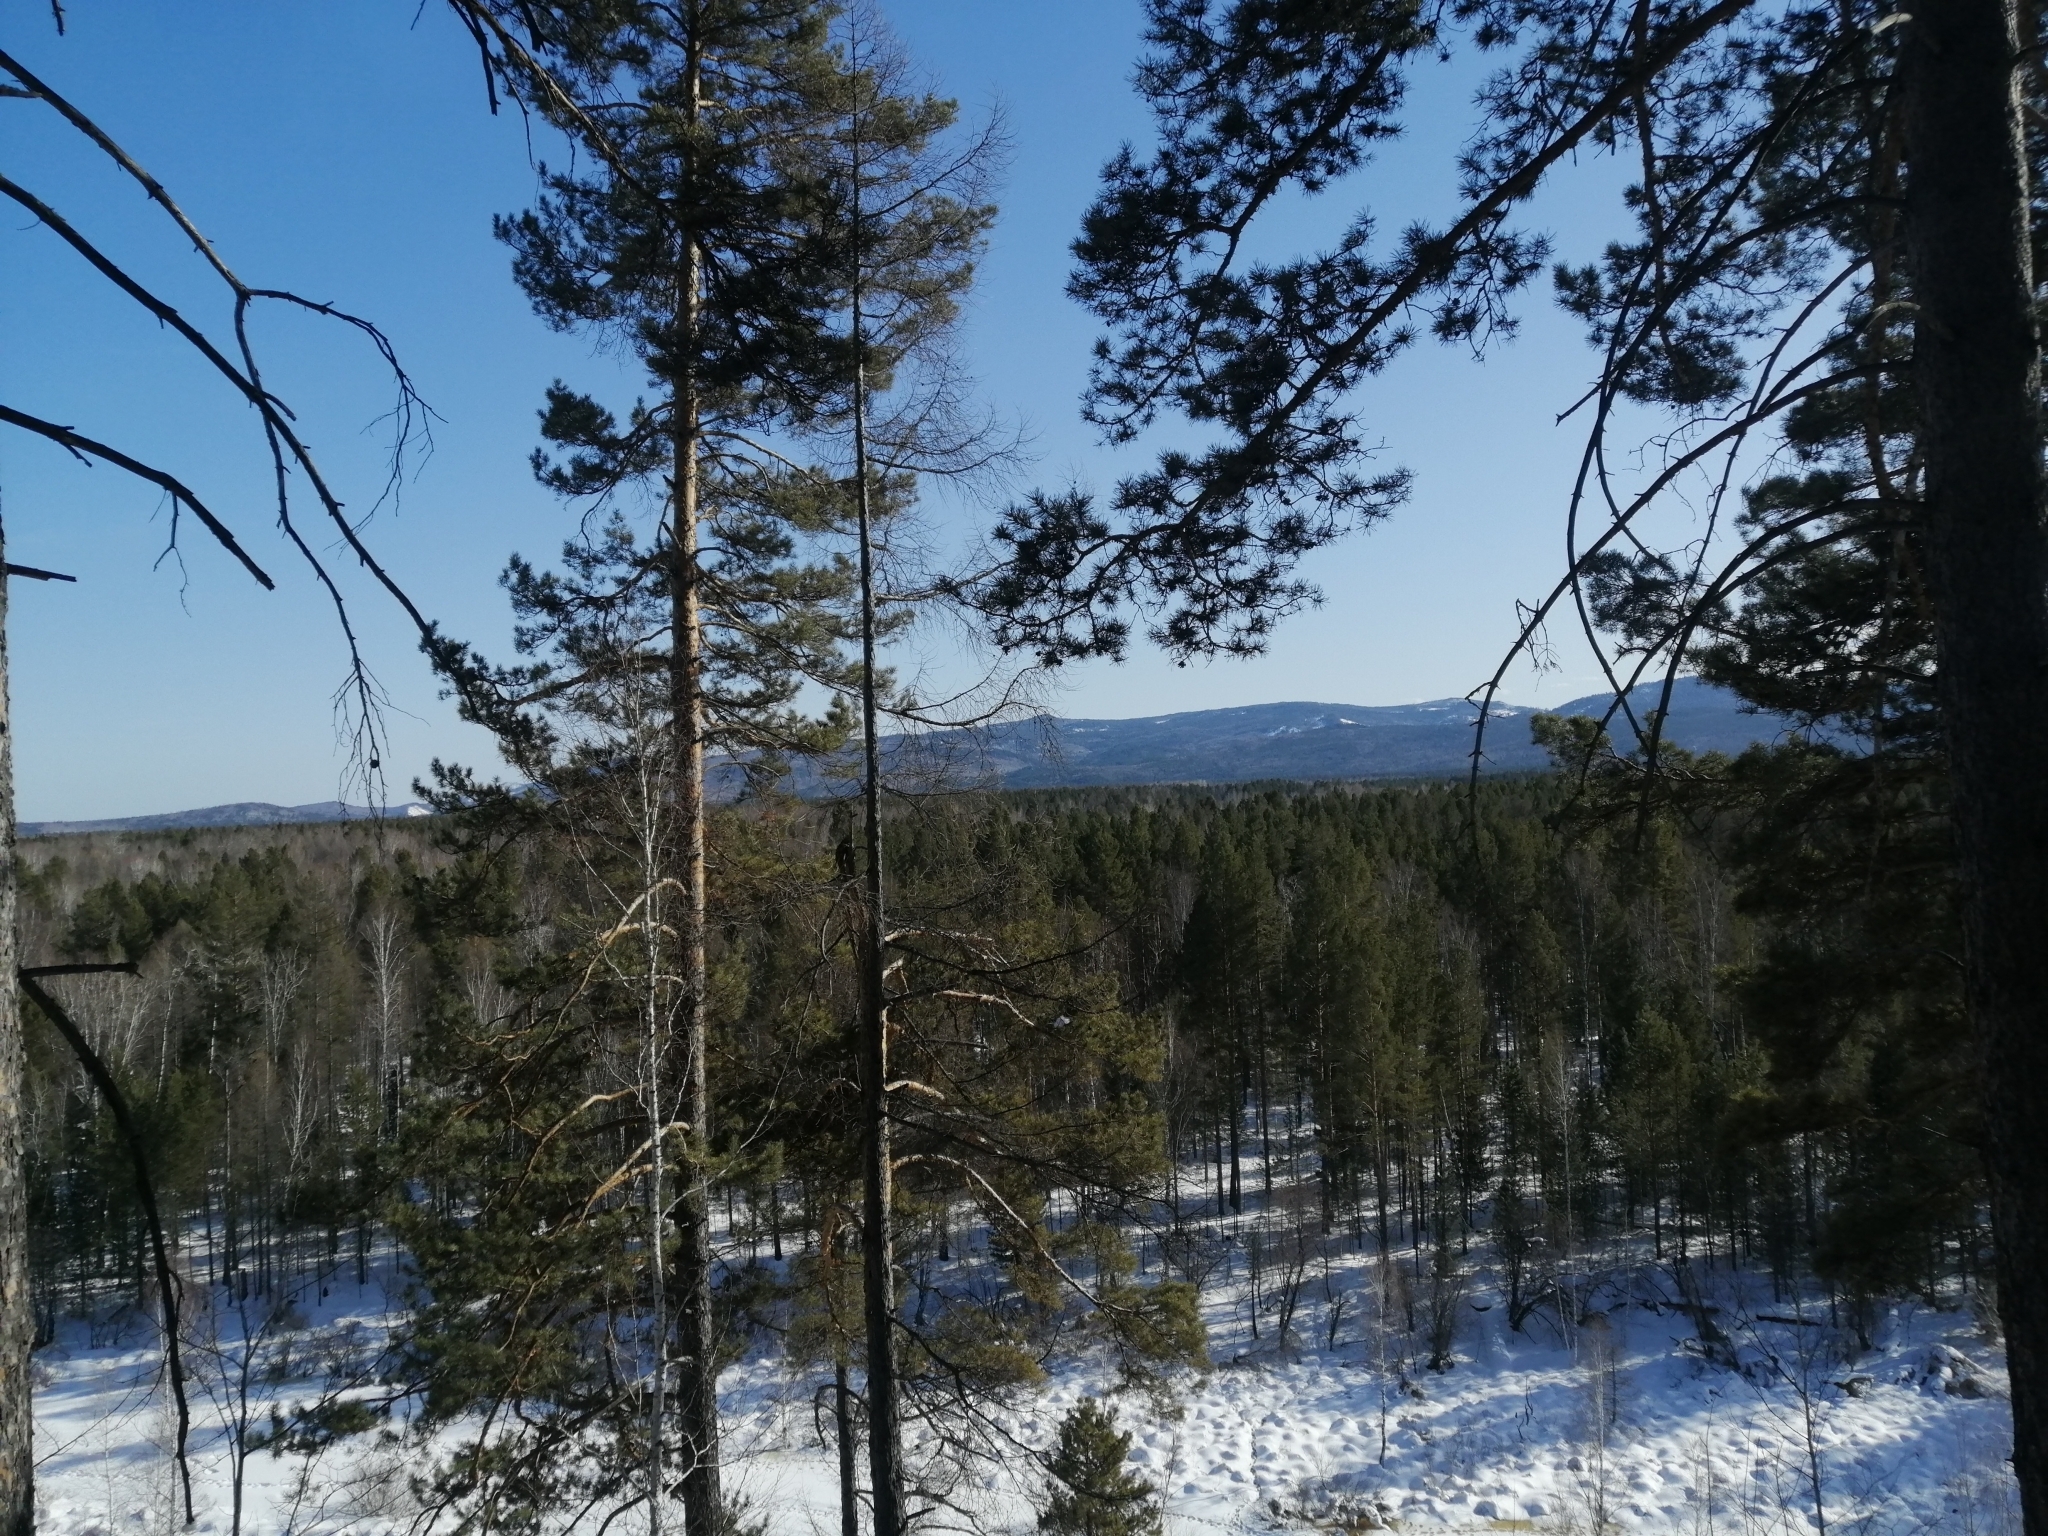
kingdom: Plantae
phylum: Tracheophyta
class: Pinopsida
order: Pinales
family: Pinaceae
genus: Pinus
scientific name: Pinus sylvestris
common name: Scots pine
